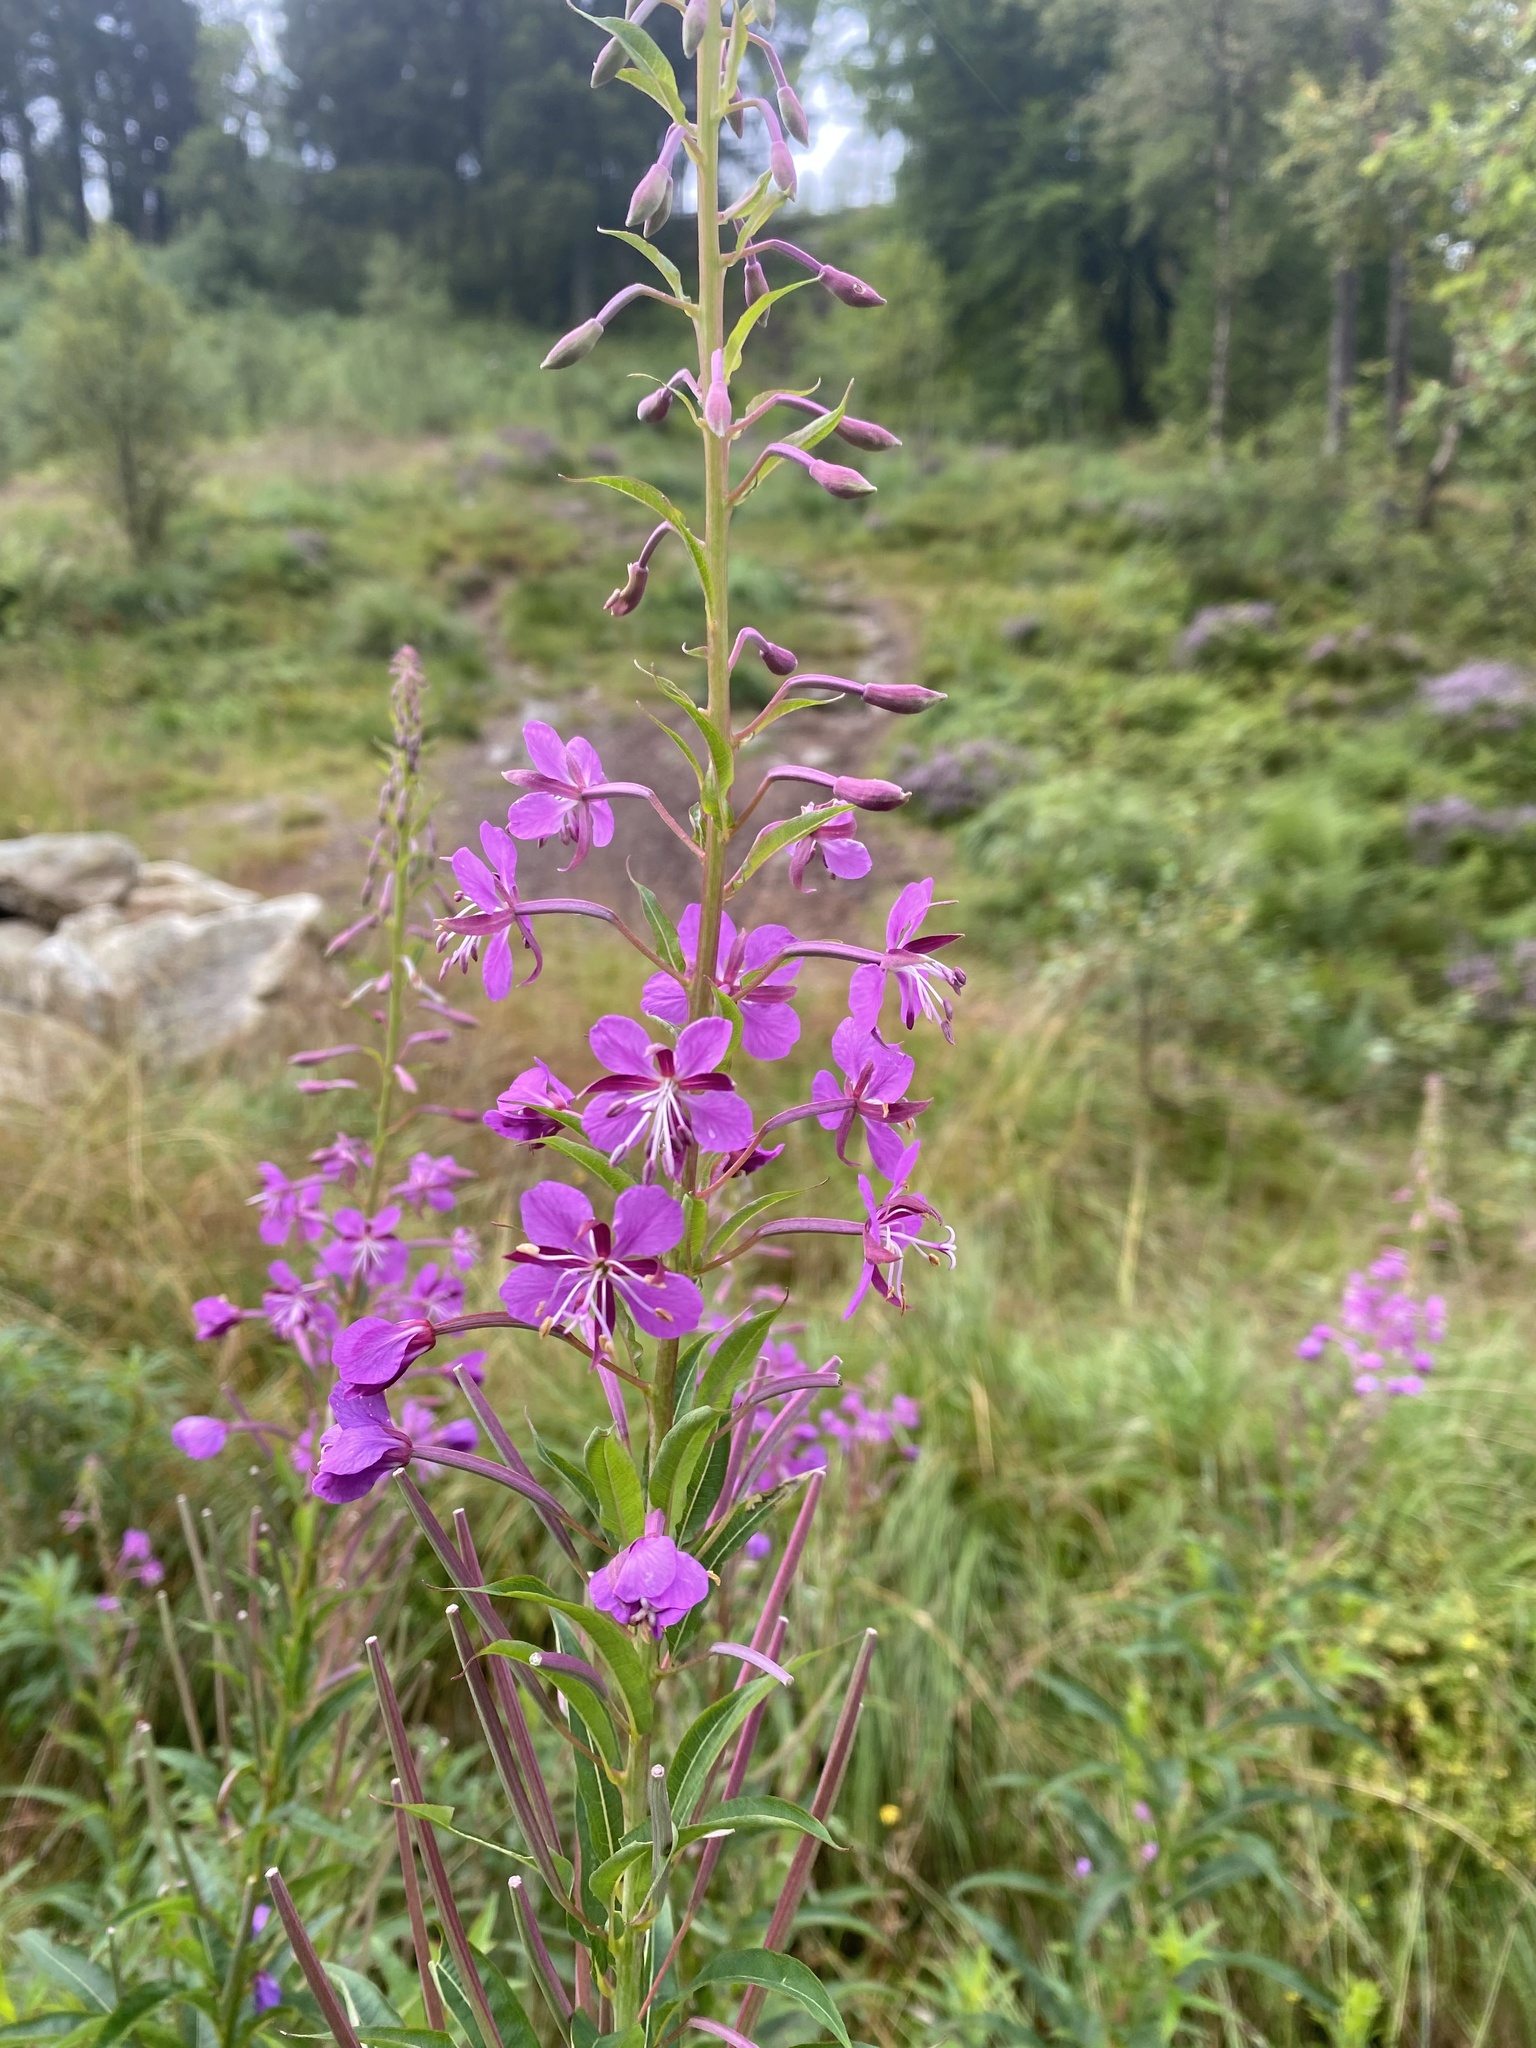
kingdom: Plantae
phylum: Tracheophyta
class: Magnoliopsida
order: Myrtales
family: Onagraceae
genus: Chamaenerion
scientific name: Chamaenerion angustifolium
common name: Fireweed
